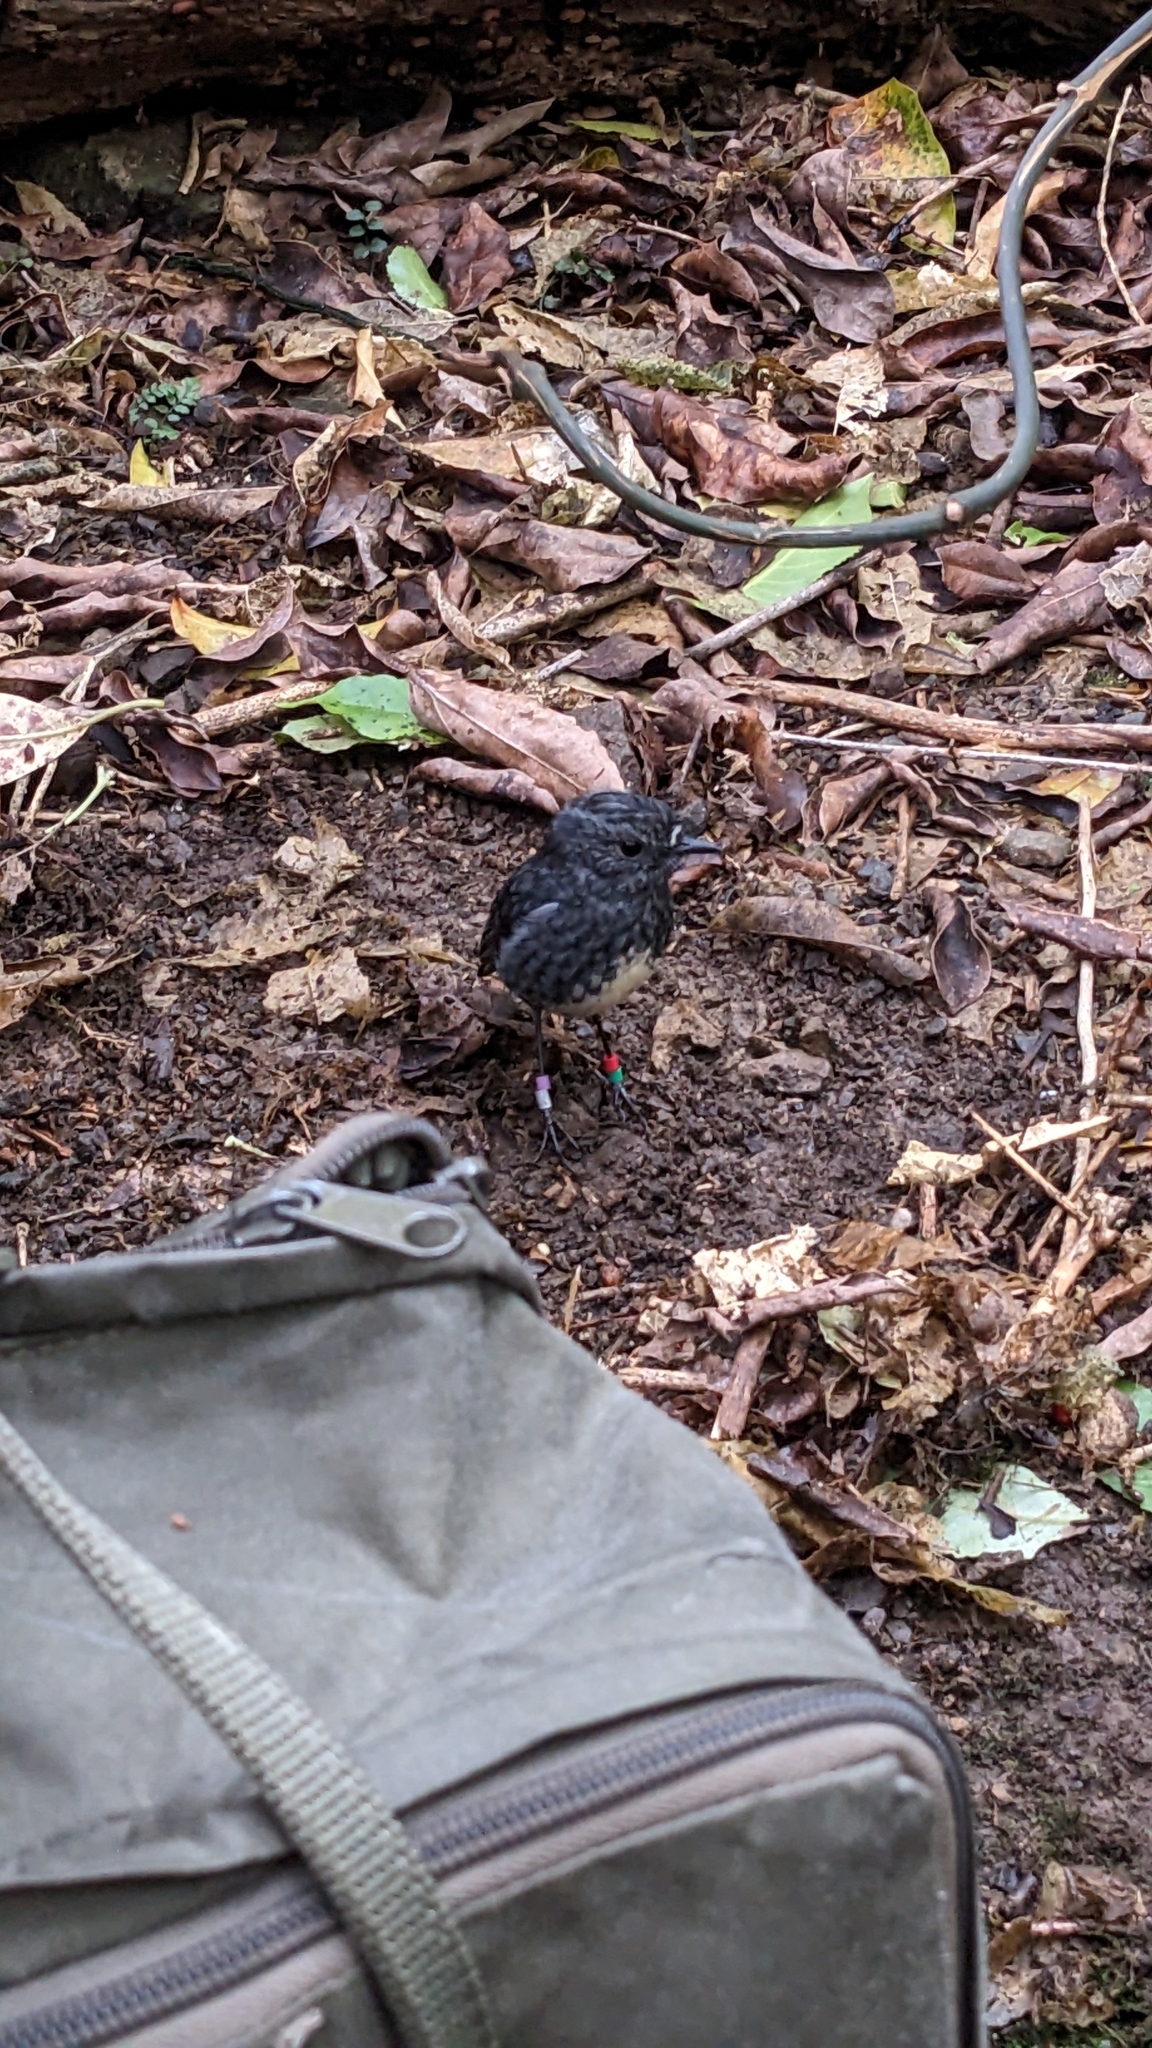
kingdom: Animalia
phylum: Chordata
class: Aves
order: Passeriformes
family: Petroicidae
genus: Petroica
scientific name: Petroica australis
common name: New zealand robin
